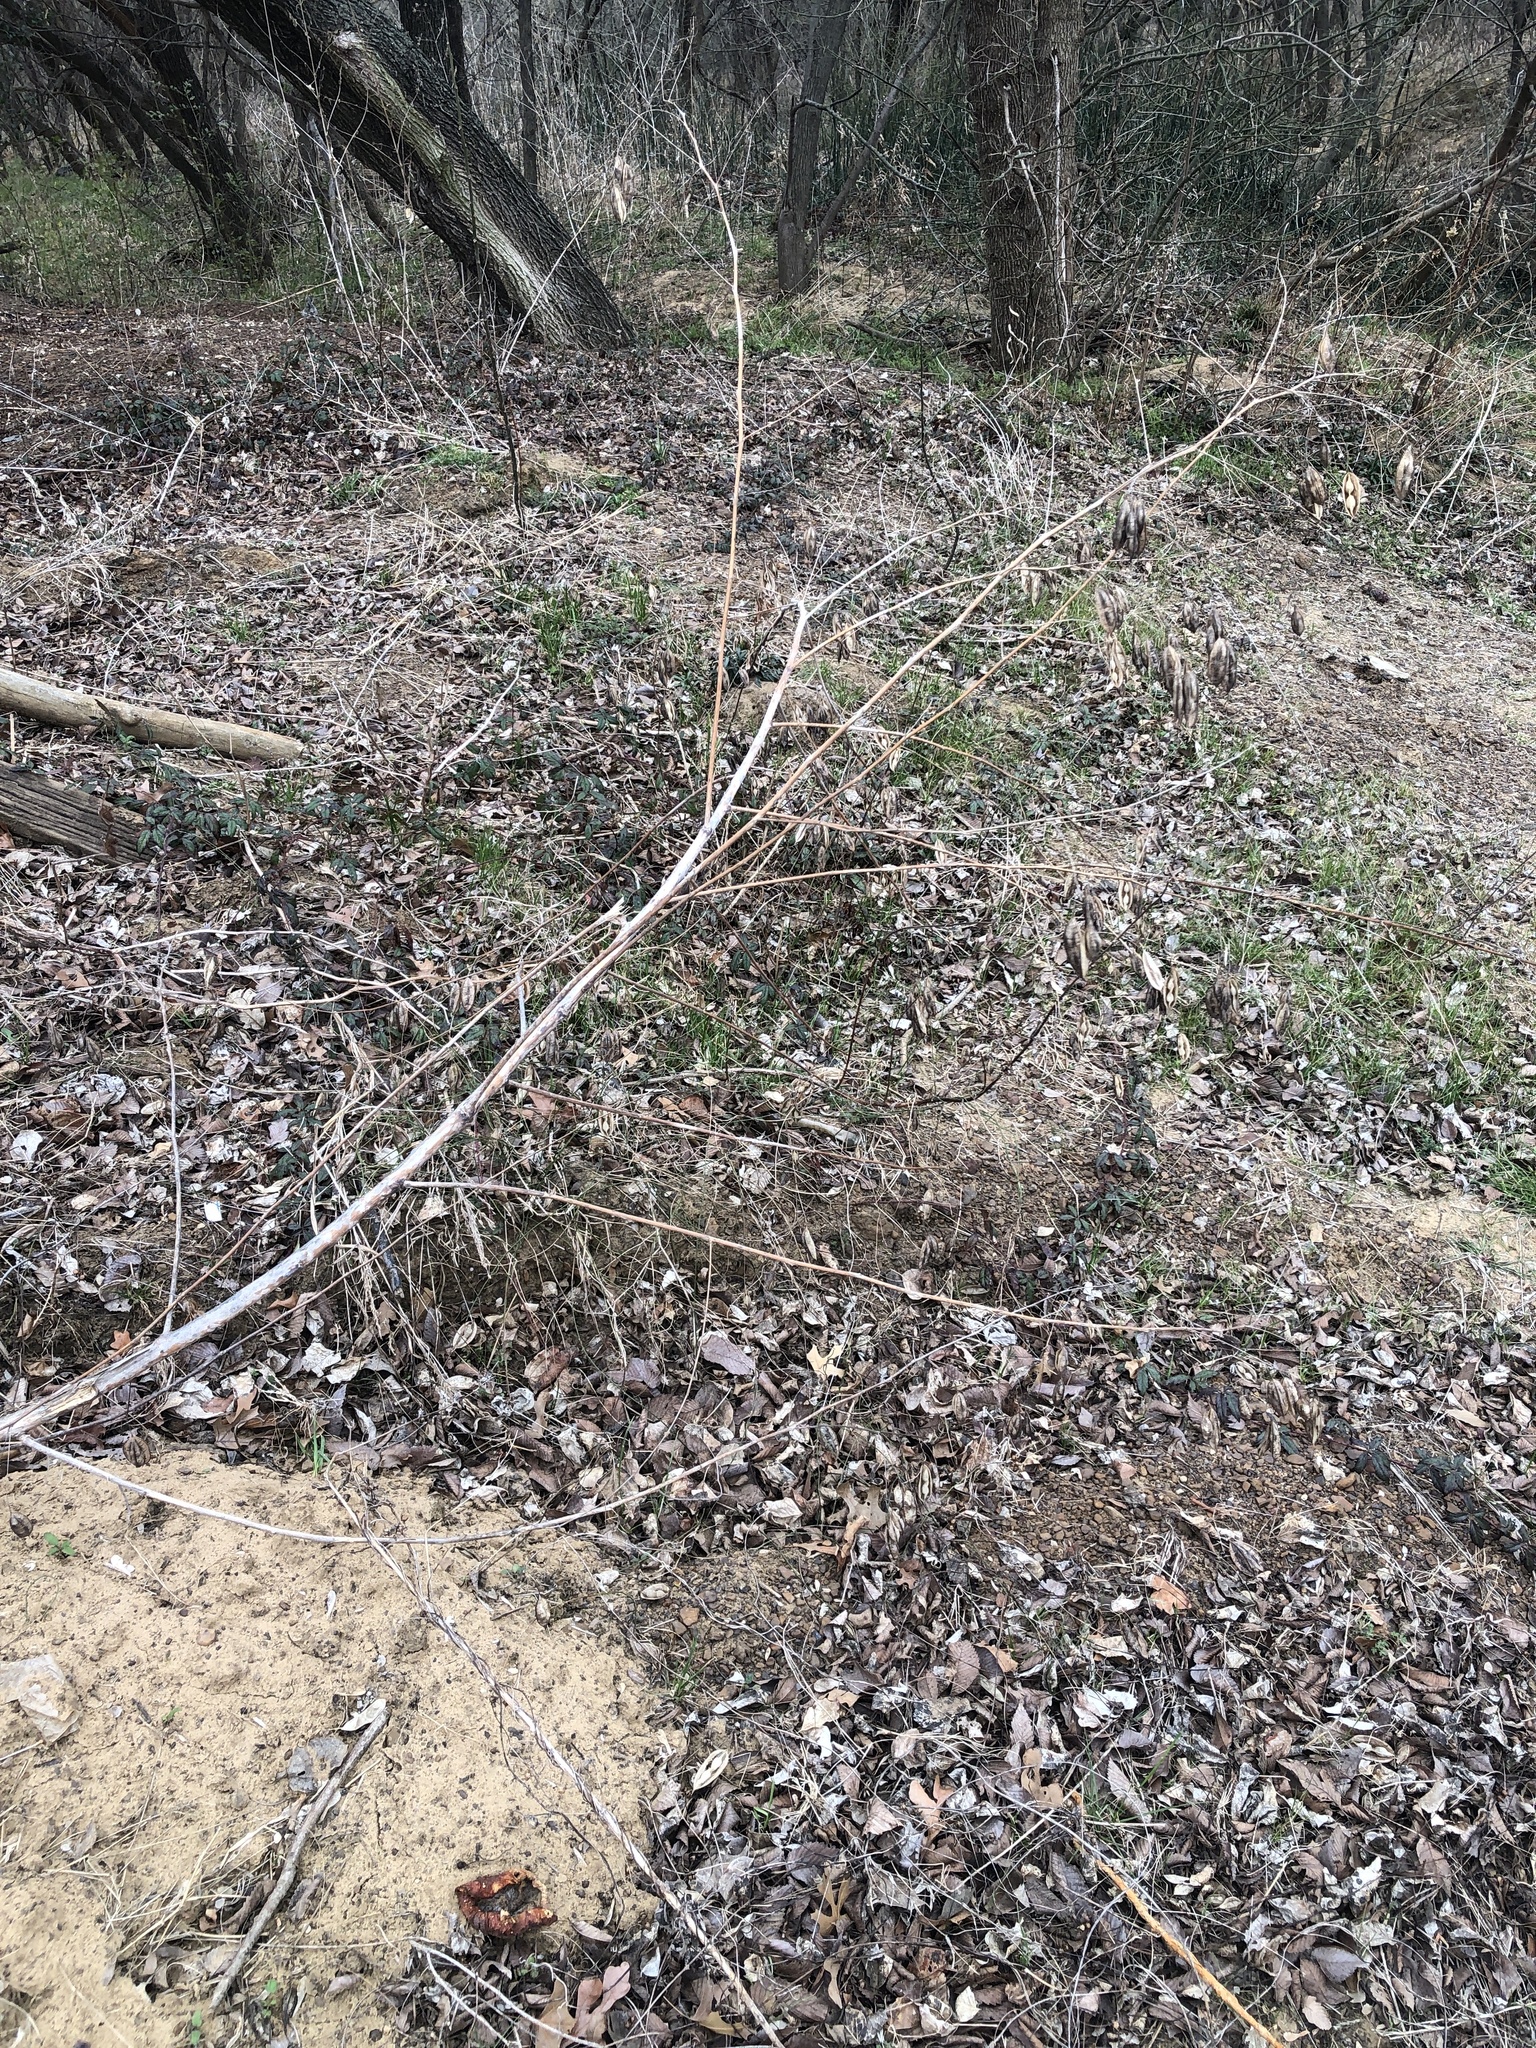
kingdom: Plantae
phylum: Tracheophyta
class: Magnoliopsida
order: Fabales
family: Fabaceae
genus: Sesbania
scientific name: Sesbania vesicaria
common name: Bagpod
